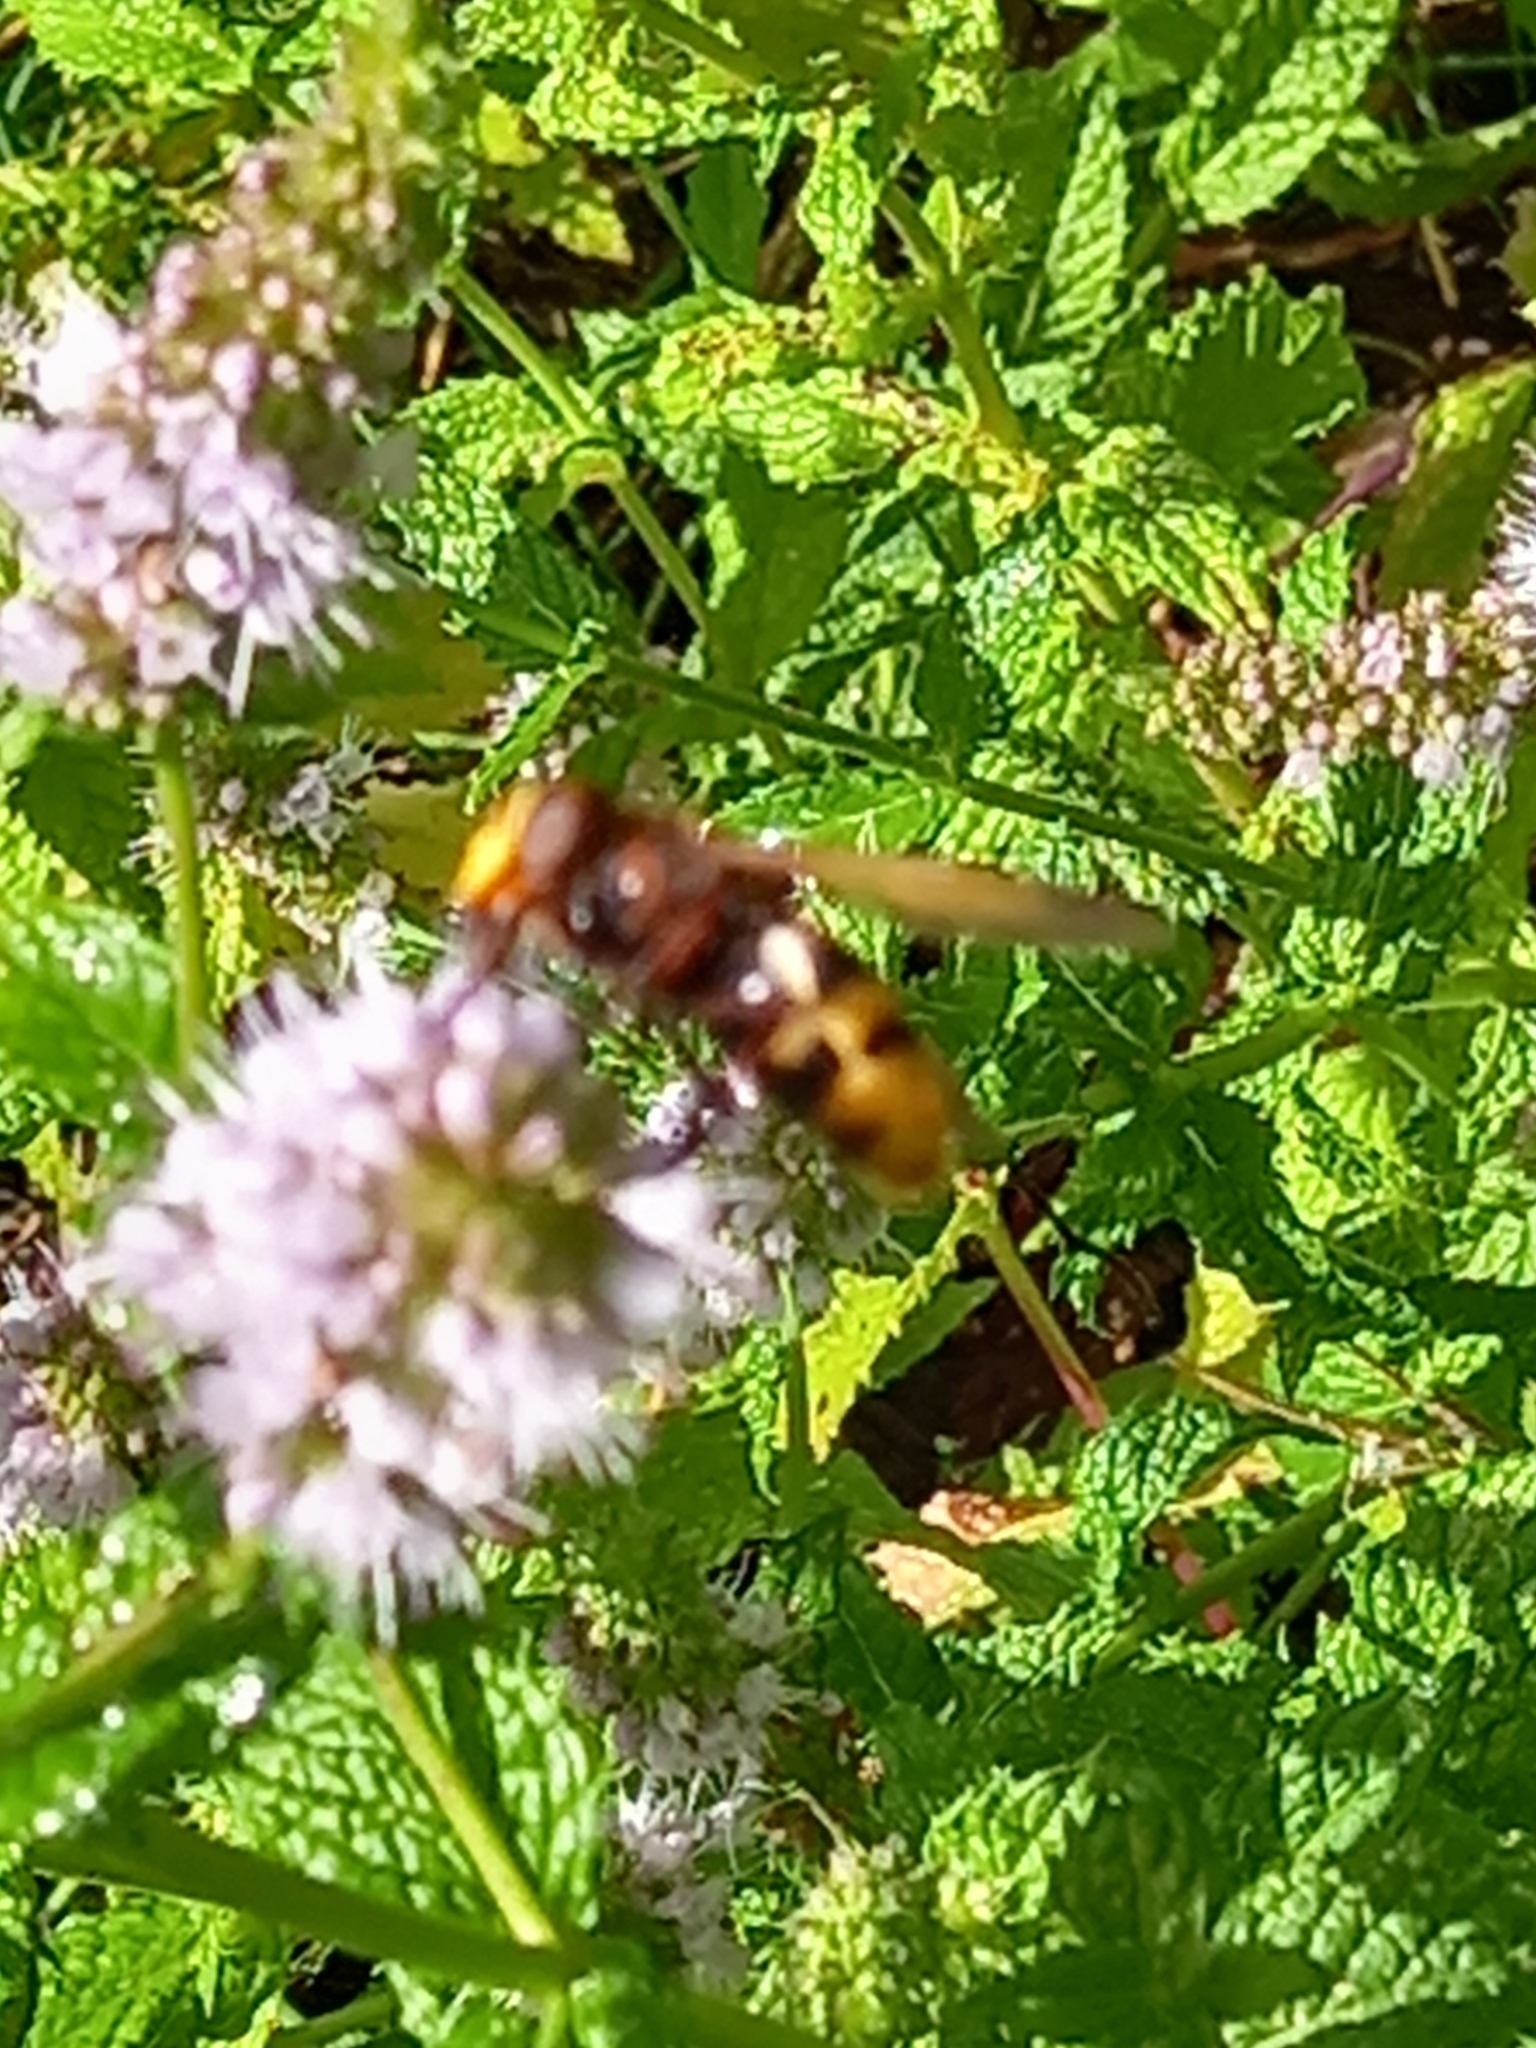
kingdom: Animalia
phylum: Arthropoda
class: Insecta
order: Diptera
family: Syrphidae
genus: Volucella
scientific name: Volucella zonaria
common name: Hornet hoverfly
